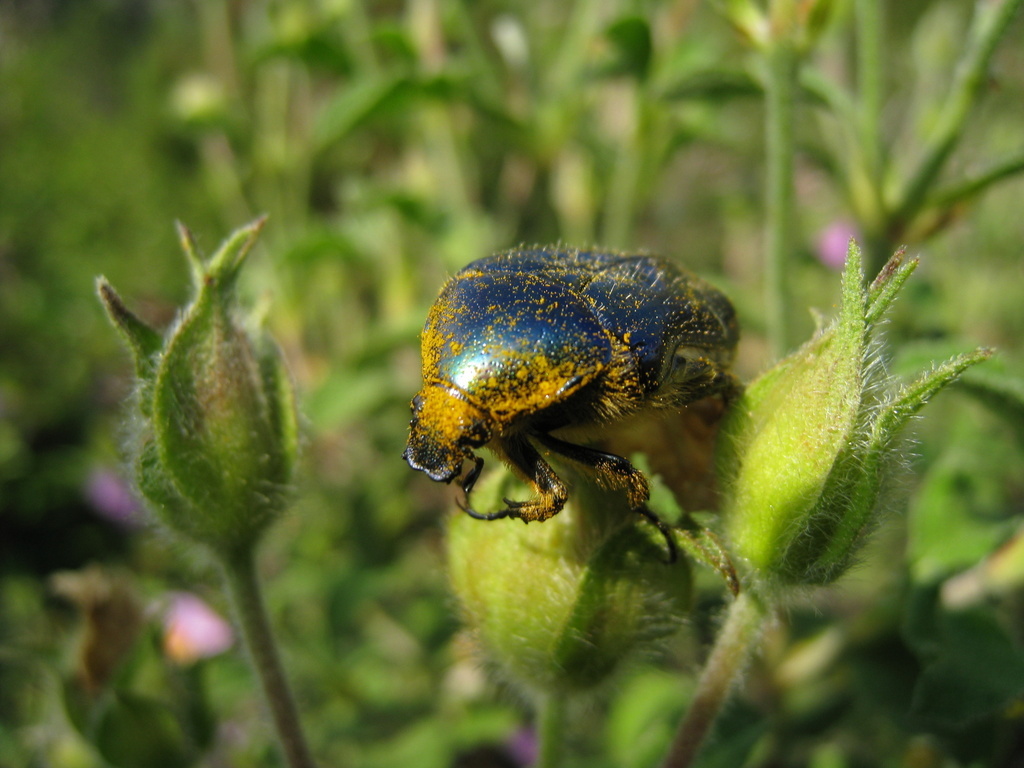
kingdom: Animalia
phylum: Arthropoda
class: Insecta
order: Coleoptera
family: Scarabaeidae
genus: Cetonia
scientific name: Cetonia aurata
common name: Rose chafer
